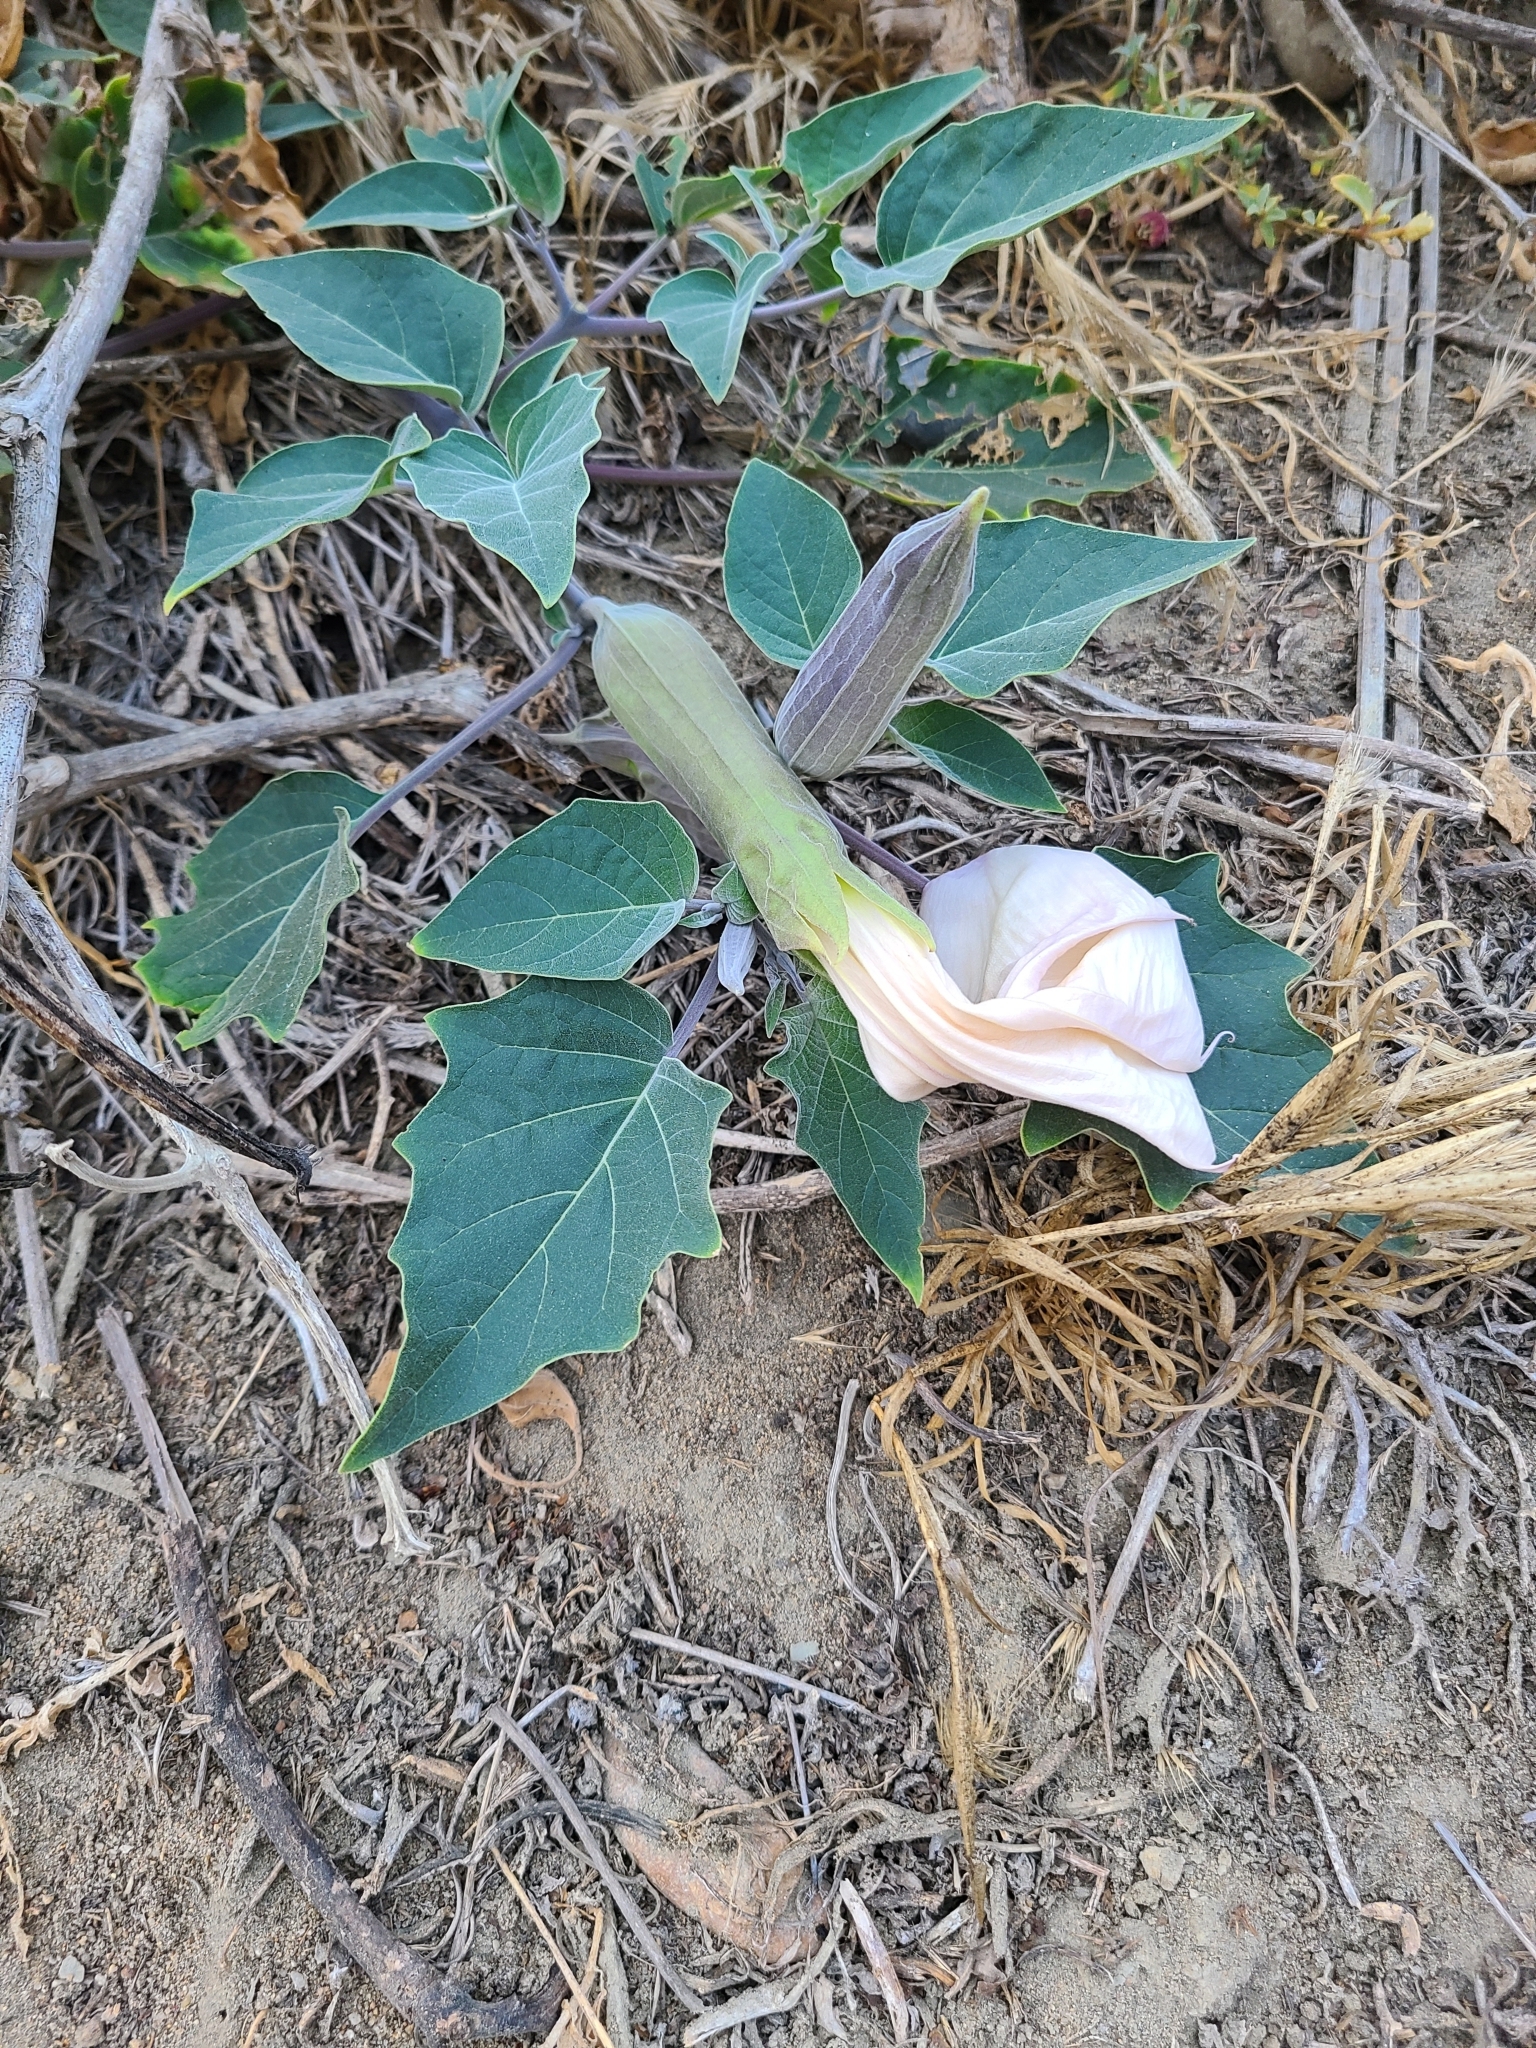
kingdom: Plantae
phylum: Tracheophyta
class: Magnoliopsida
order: Solanales
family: Solanaceae
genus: Datura
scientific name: Datura wrightii
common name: Sacred thorn-apple
